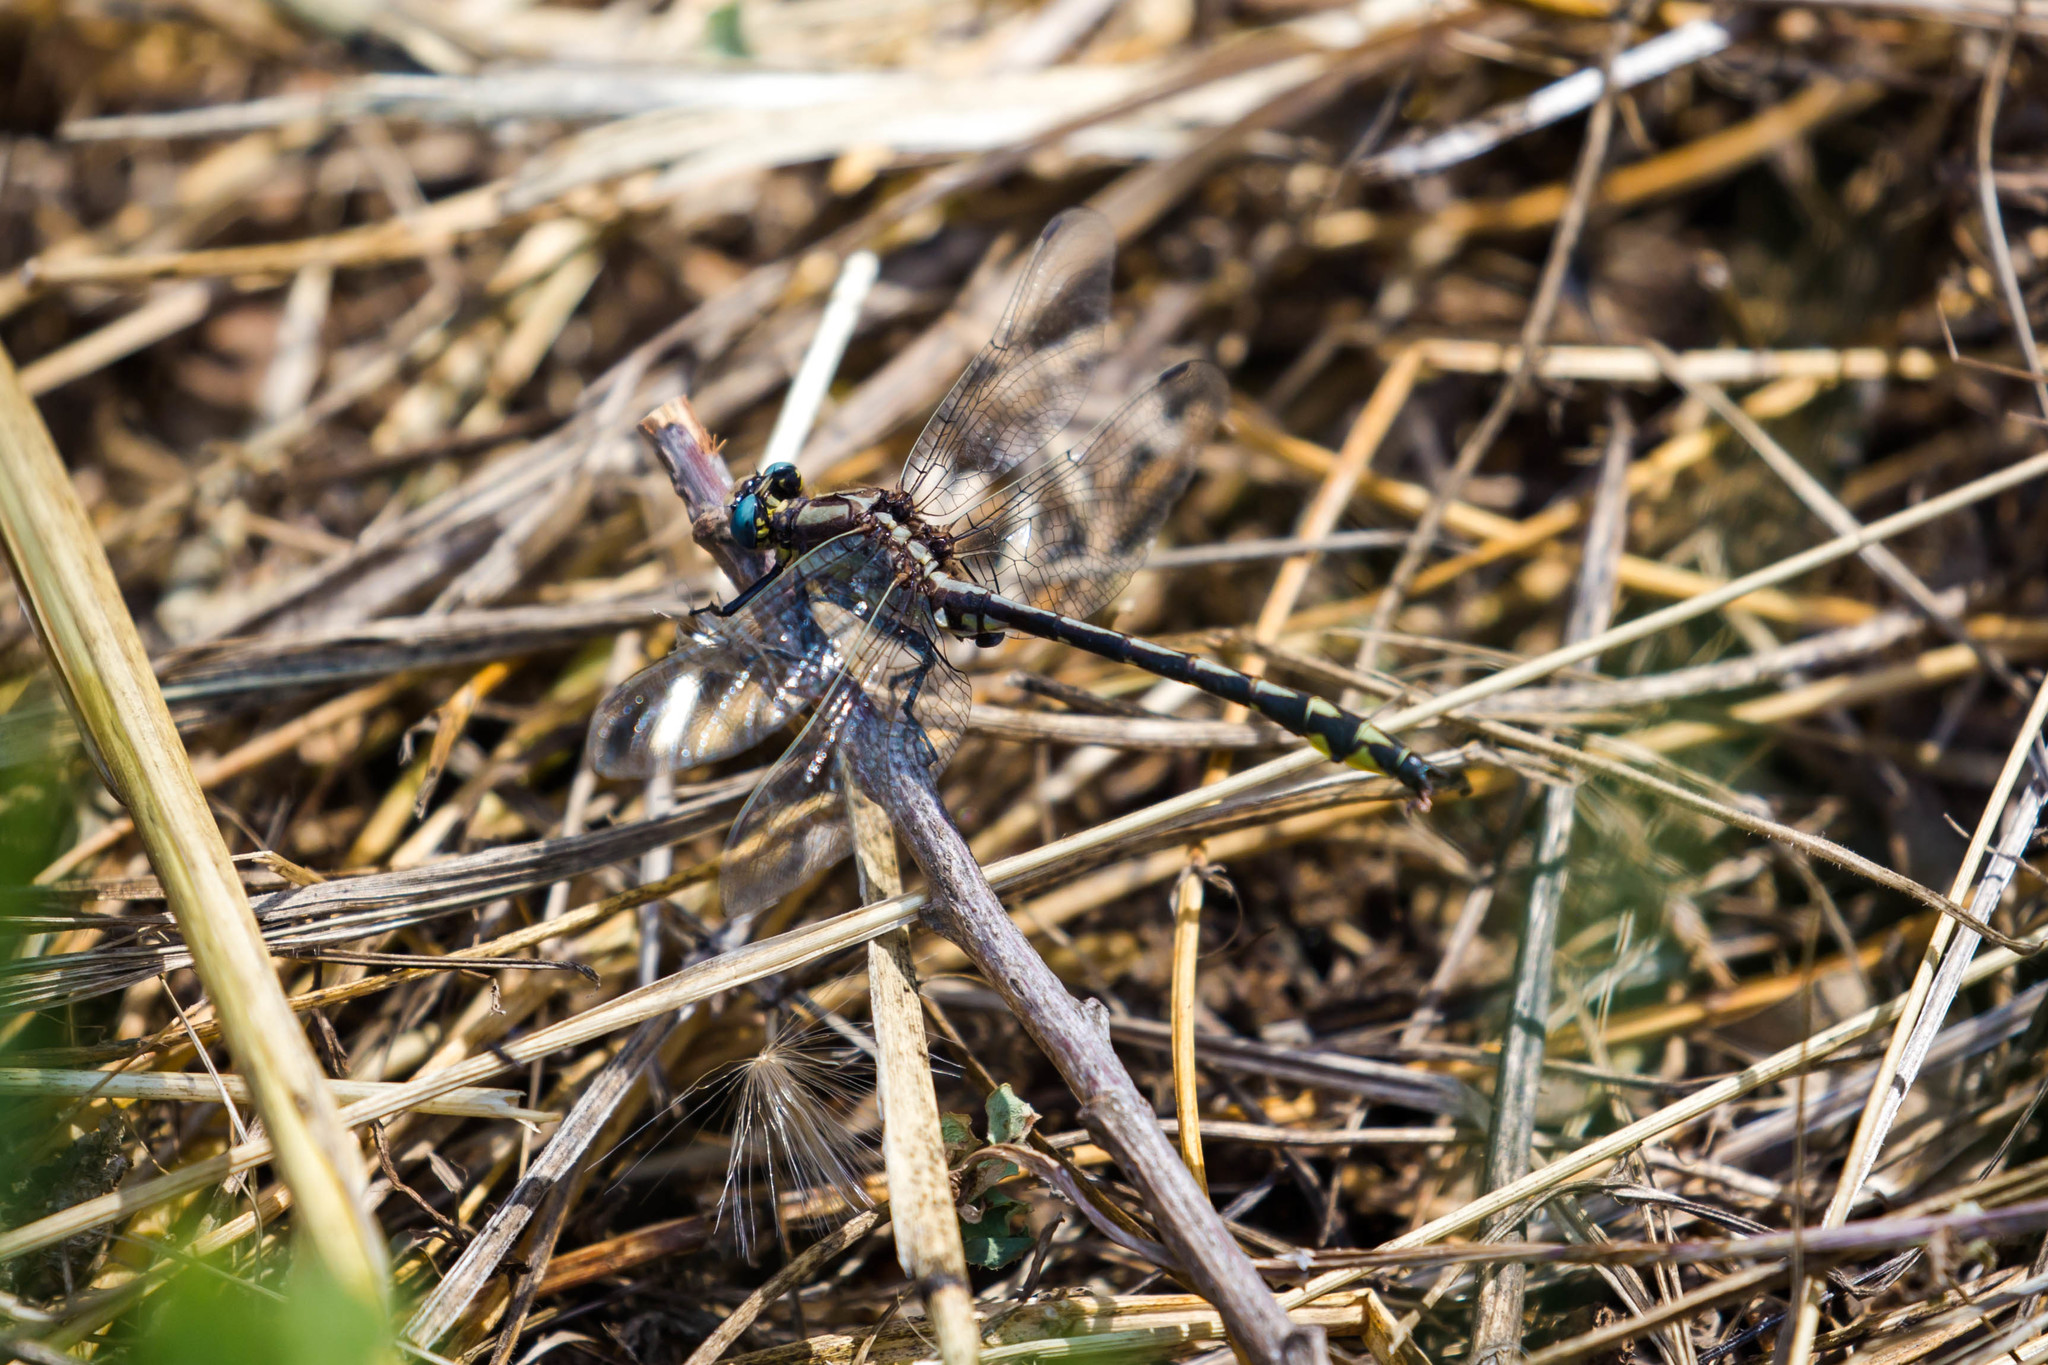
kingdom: Animalia
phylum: Arthropoda
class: Insecta
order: Odonata
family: Gomphidae
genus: Phanogomphus
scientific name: Phanogomphus kurilis
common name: Pacific clubtail
